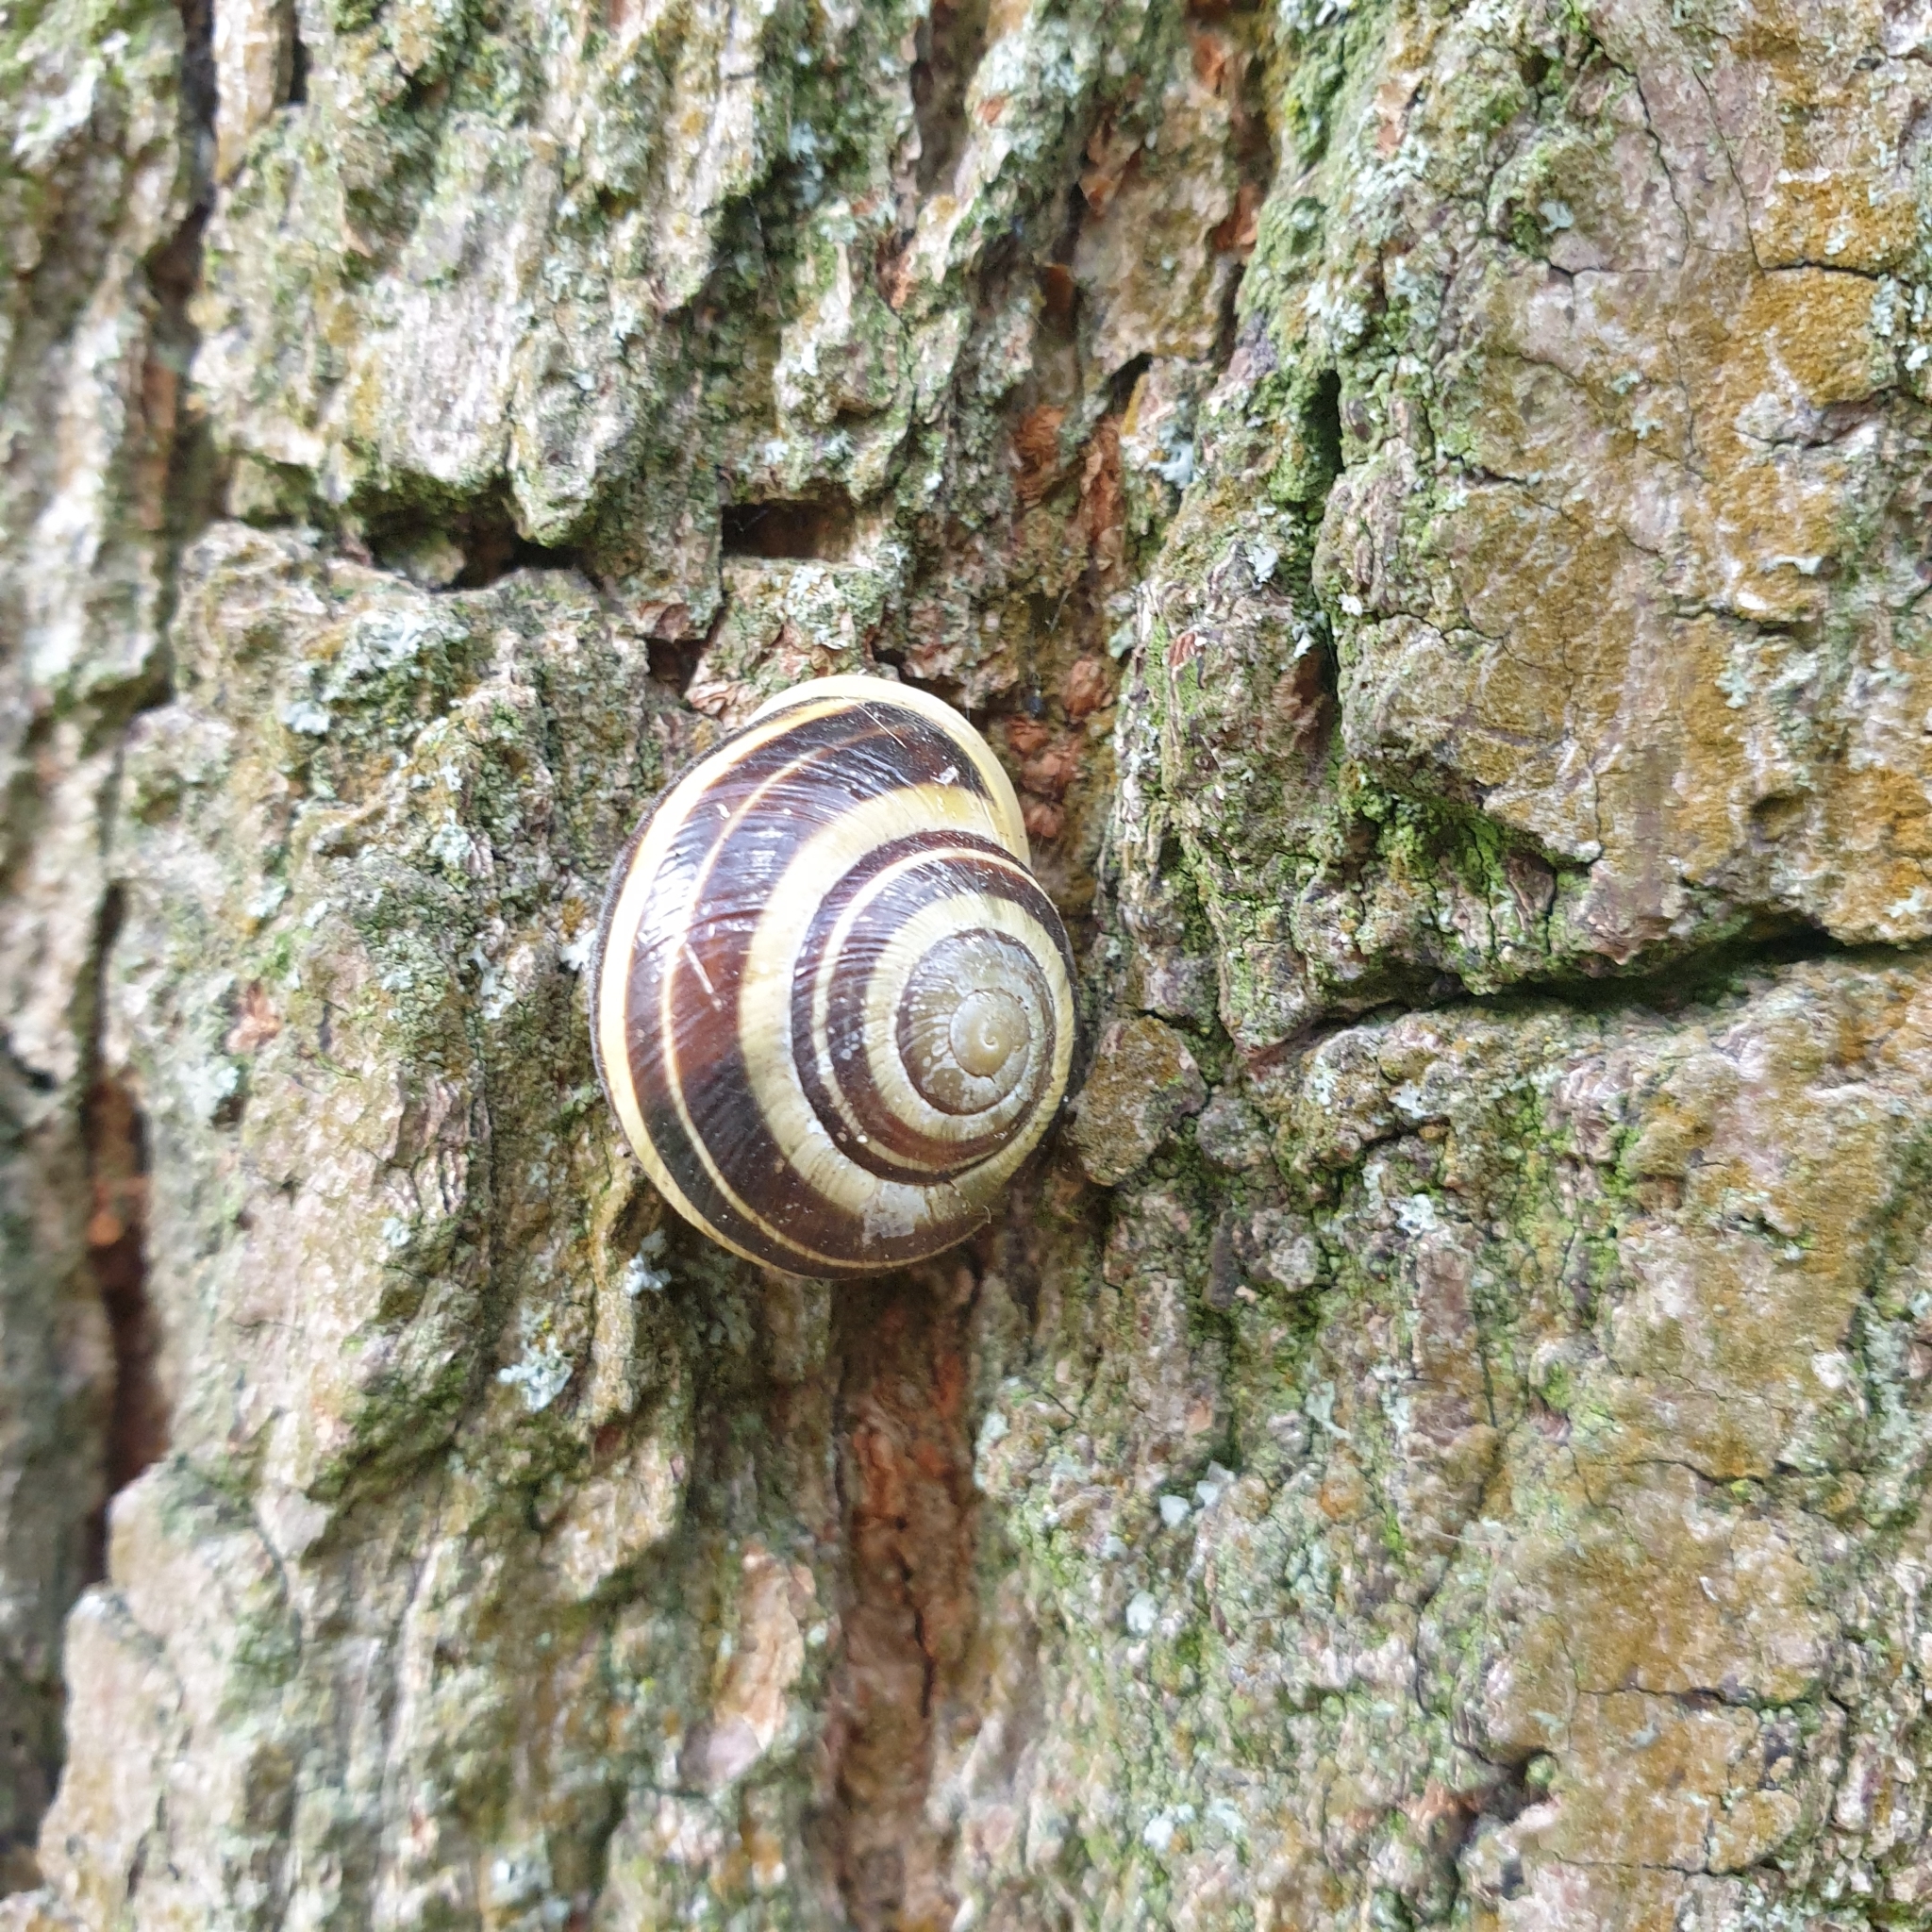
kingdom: Animalia
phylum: Mollusca
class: Gastropoda
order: Stylommatophora
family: Helicidae
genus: Cepaea
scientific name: Cepaea hortensis
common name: White-lip gardensnail
